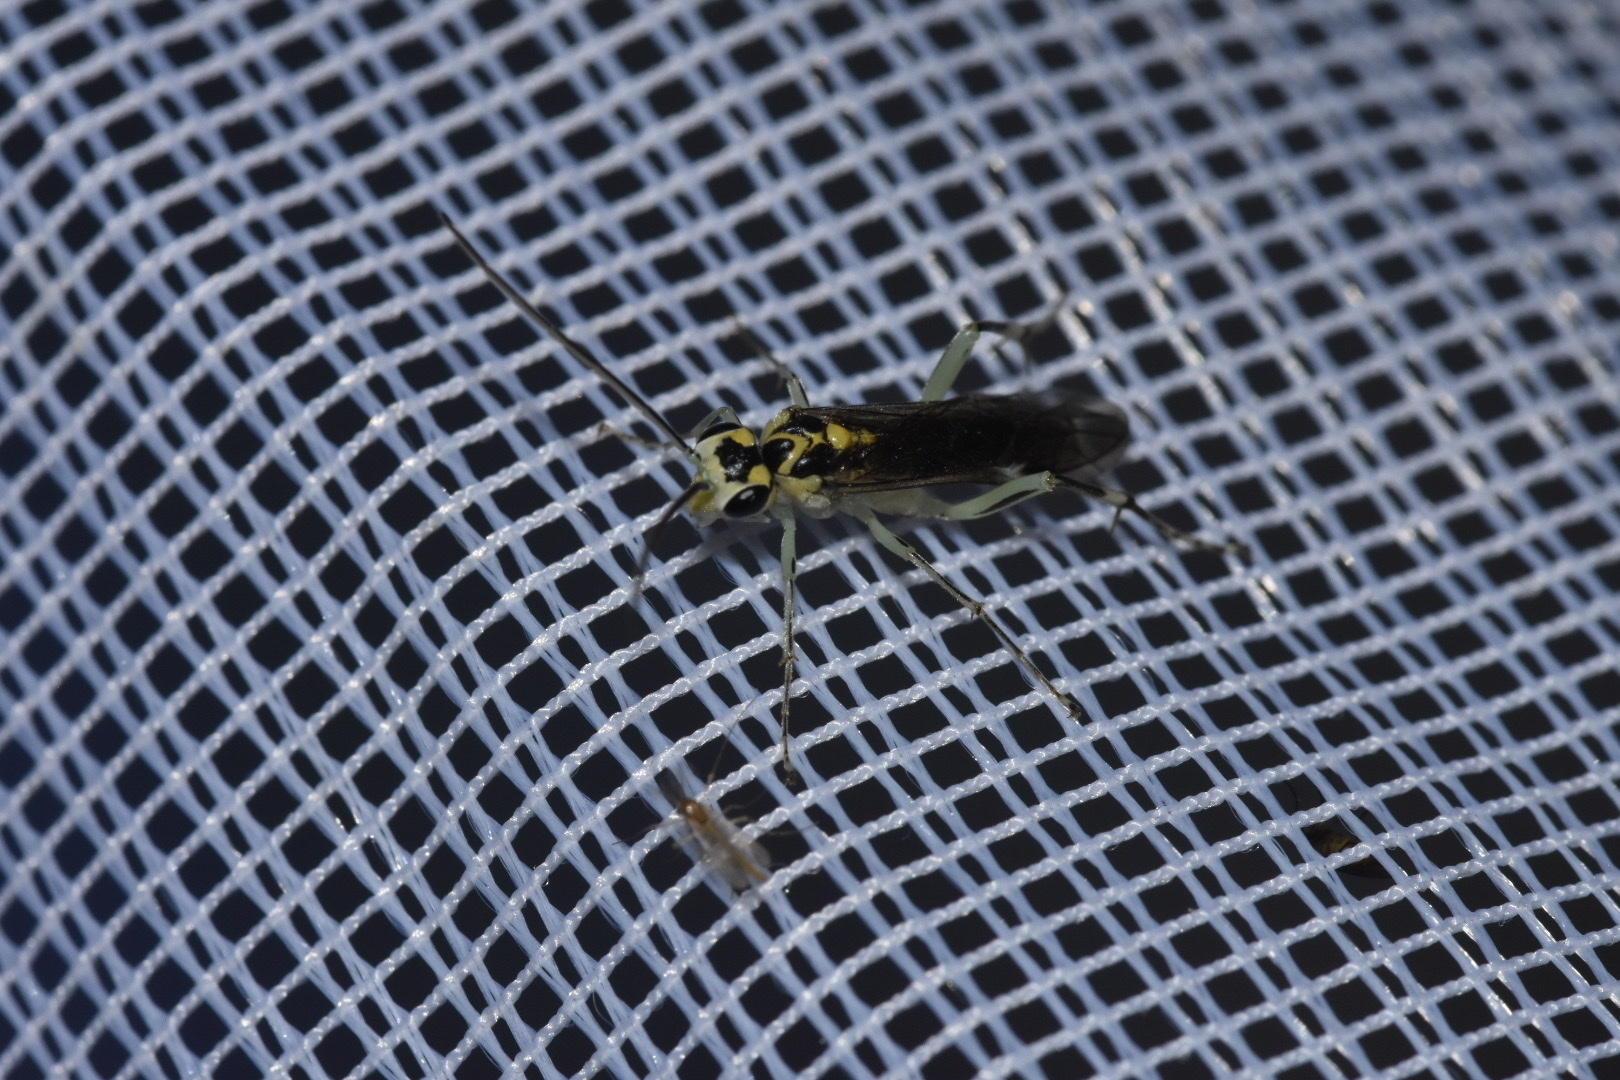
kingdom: Animalia
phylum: Arthropoda
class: Insecta
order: Hymenoptera
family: Tenthredinidae
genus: Pachyprotasis
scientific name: Pachyprotasis antennata
